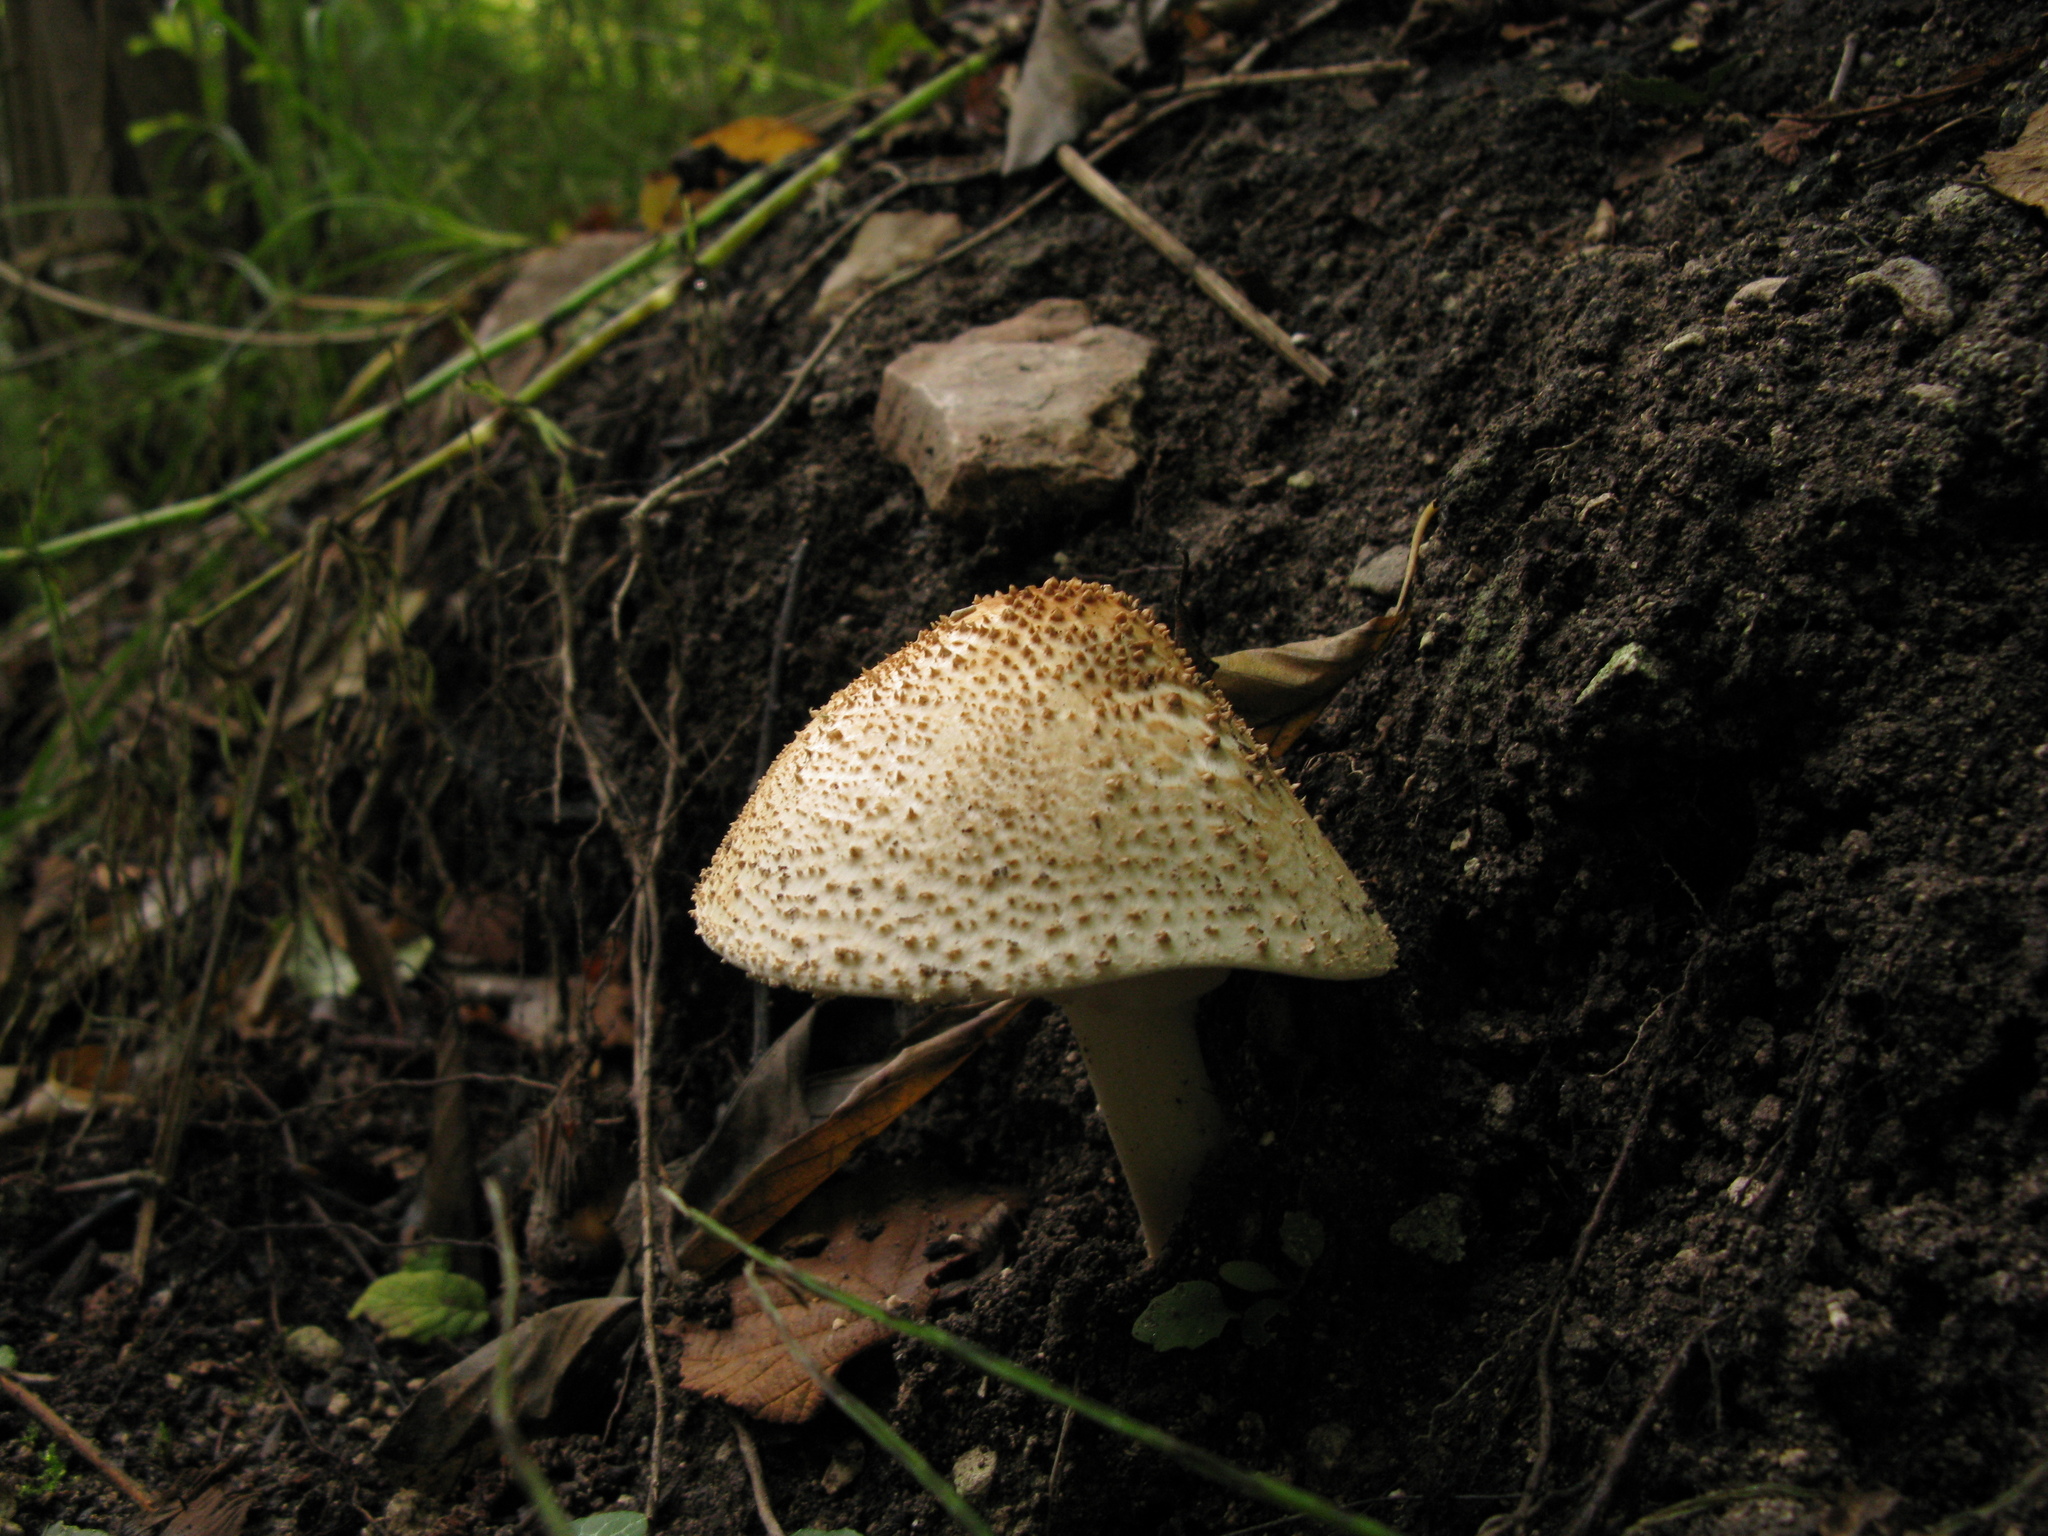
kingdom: Fungi
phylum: Basidiomycota
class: Agaricomycetes
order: Agaricales
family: Agaricaceae
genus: Echinoderma
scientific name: Echinoderma asperum
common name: Freckled dapperling
